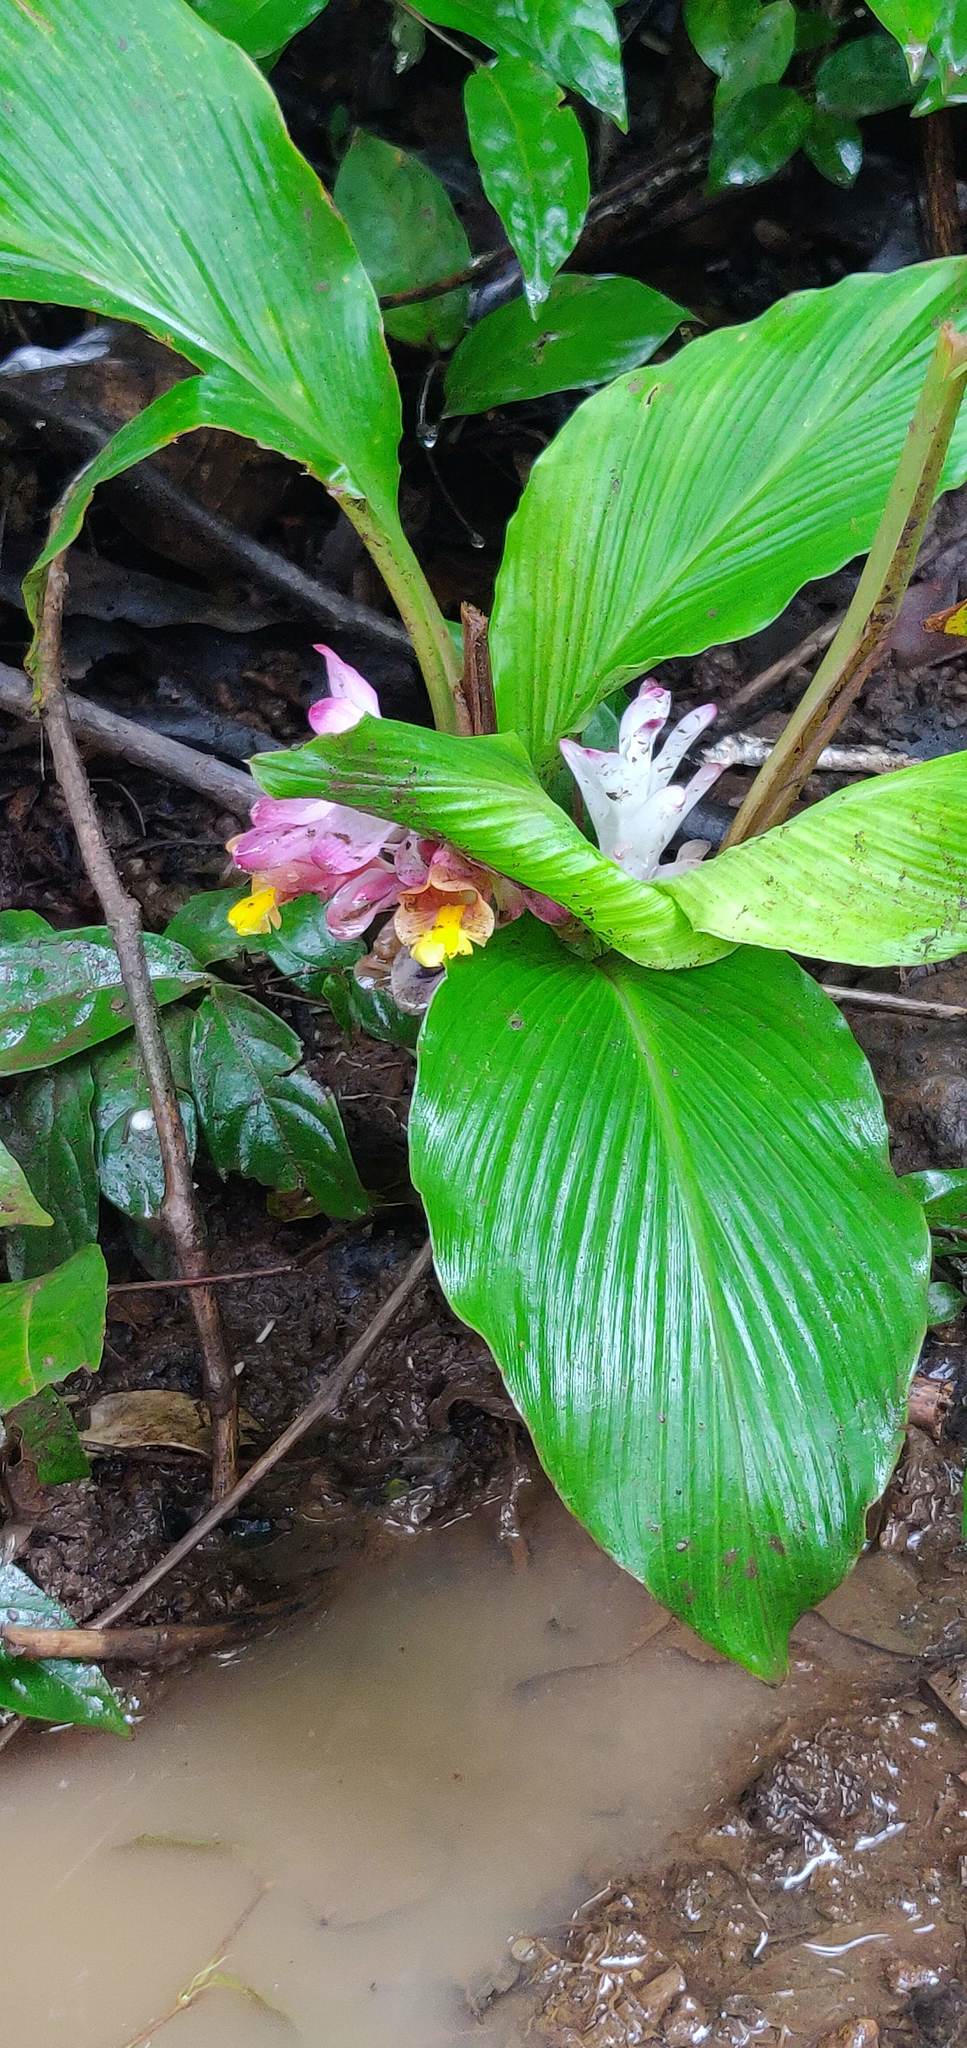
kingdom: Plantae
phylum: Tracheophyta
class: Liliopsida
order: Zingiberales
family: Zingiberaceae
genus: Curcuma
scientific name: Curcuma inodora
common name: Hidden lily
